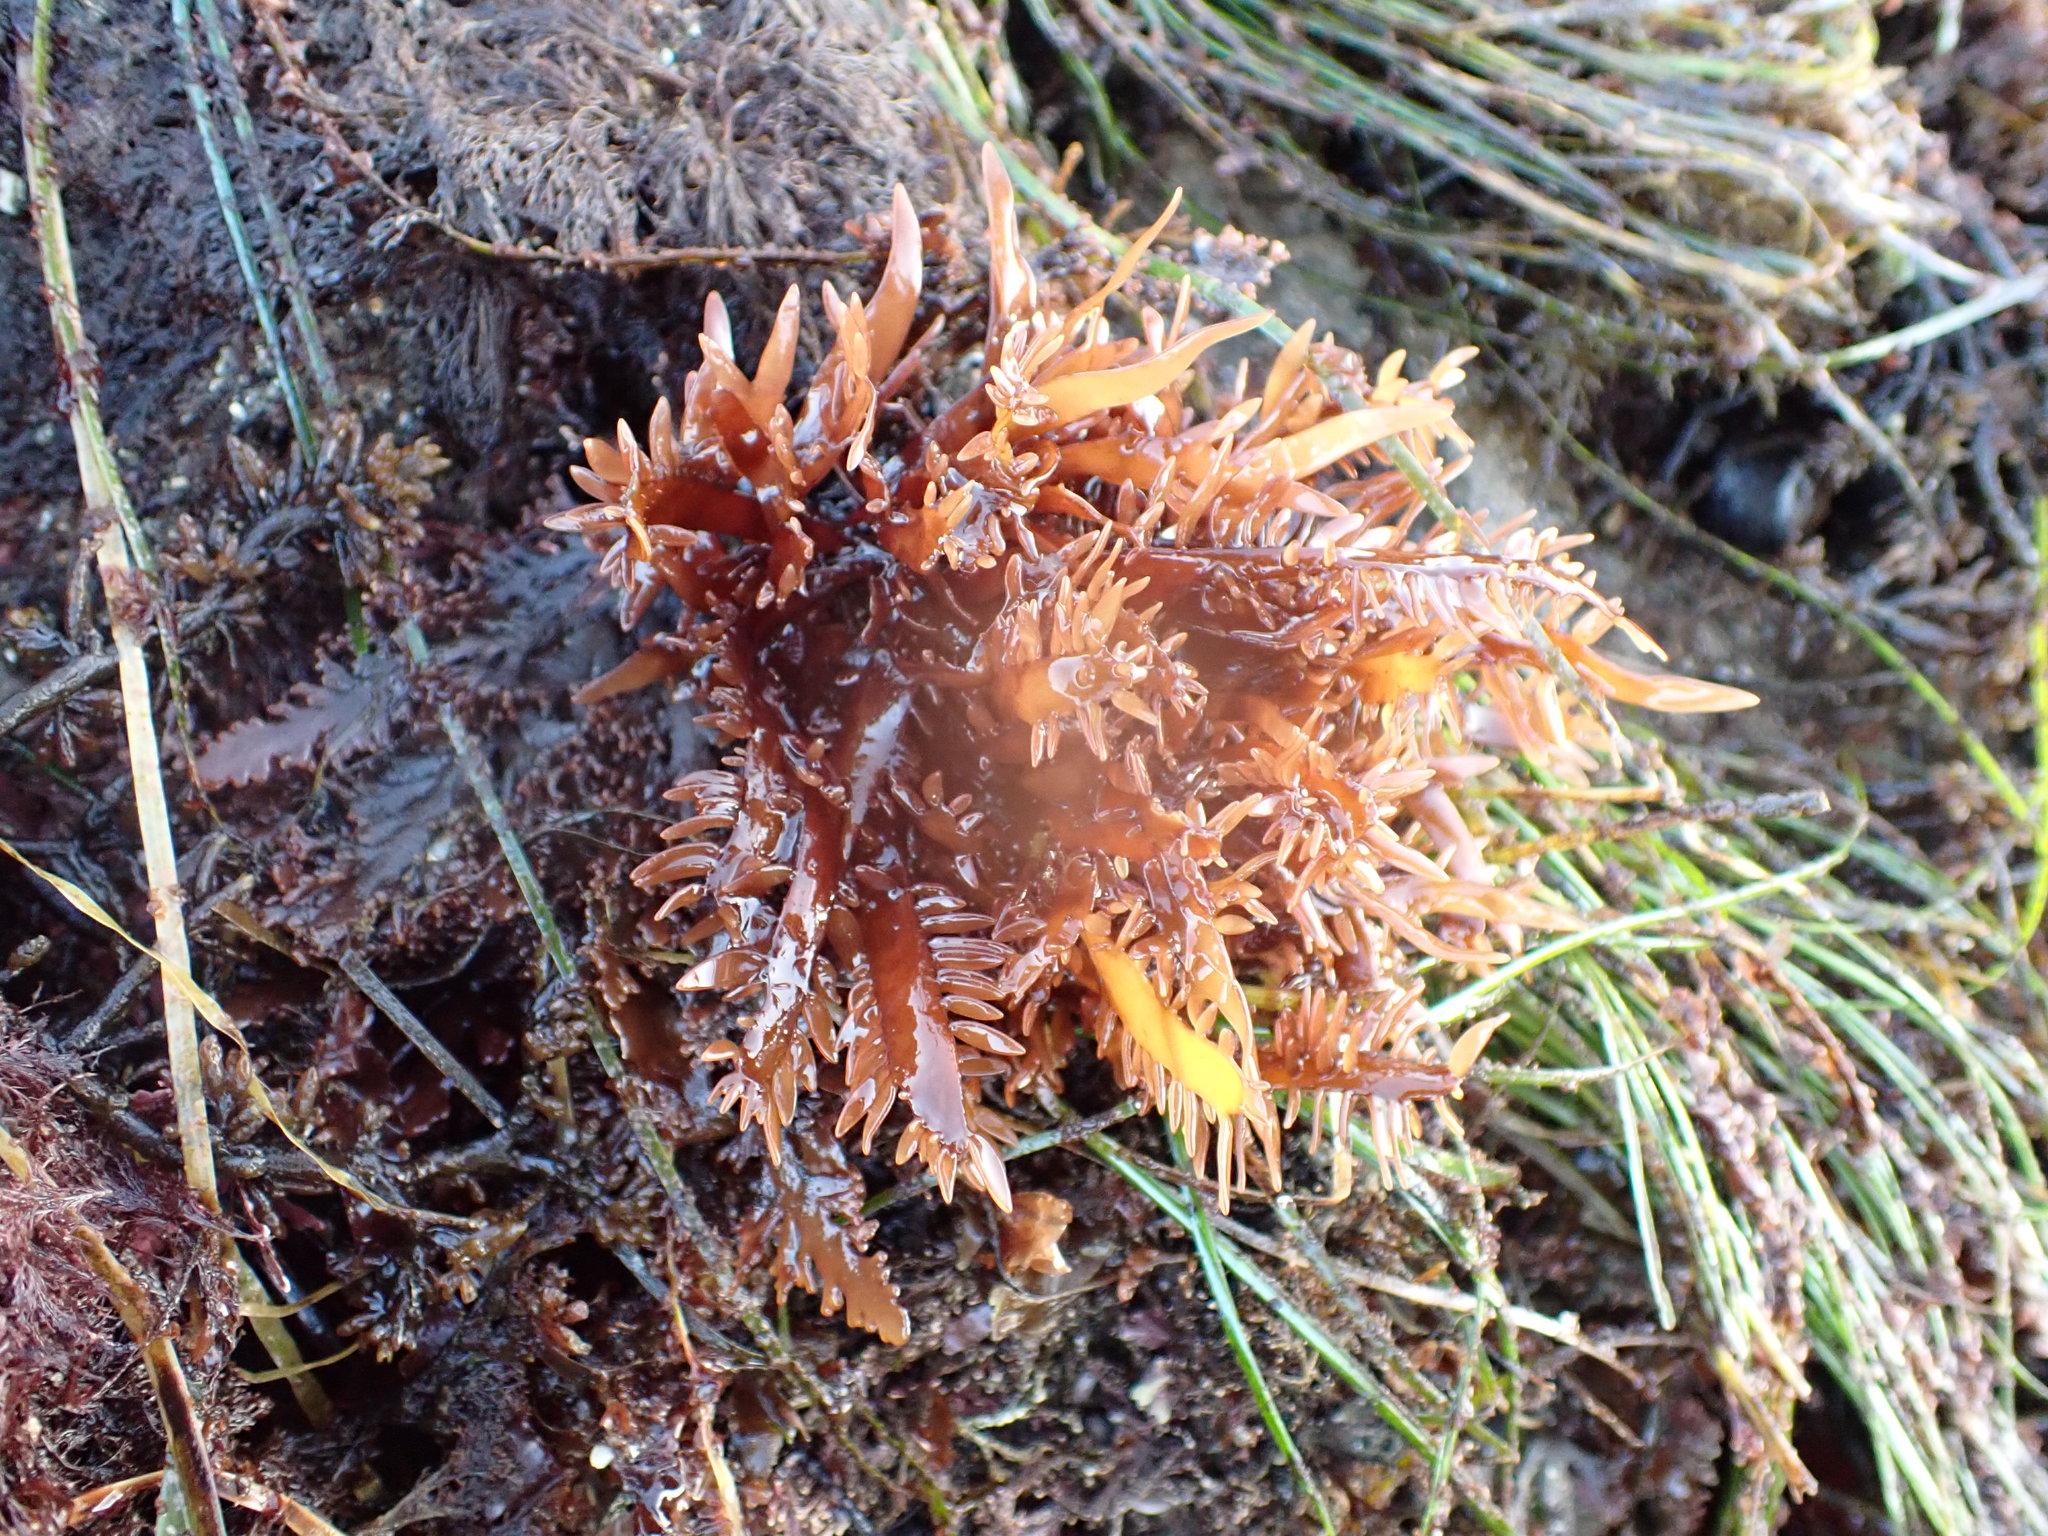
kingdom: Plantae
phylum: Rhodophyta
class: Florideophyceae
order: Halymeniales
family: Halymeniaceae
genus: Grateloupia
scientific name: Grateloupia Prionitis lanceolata
